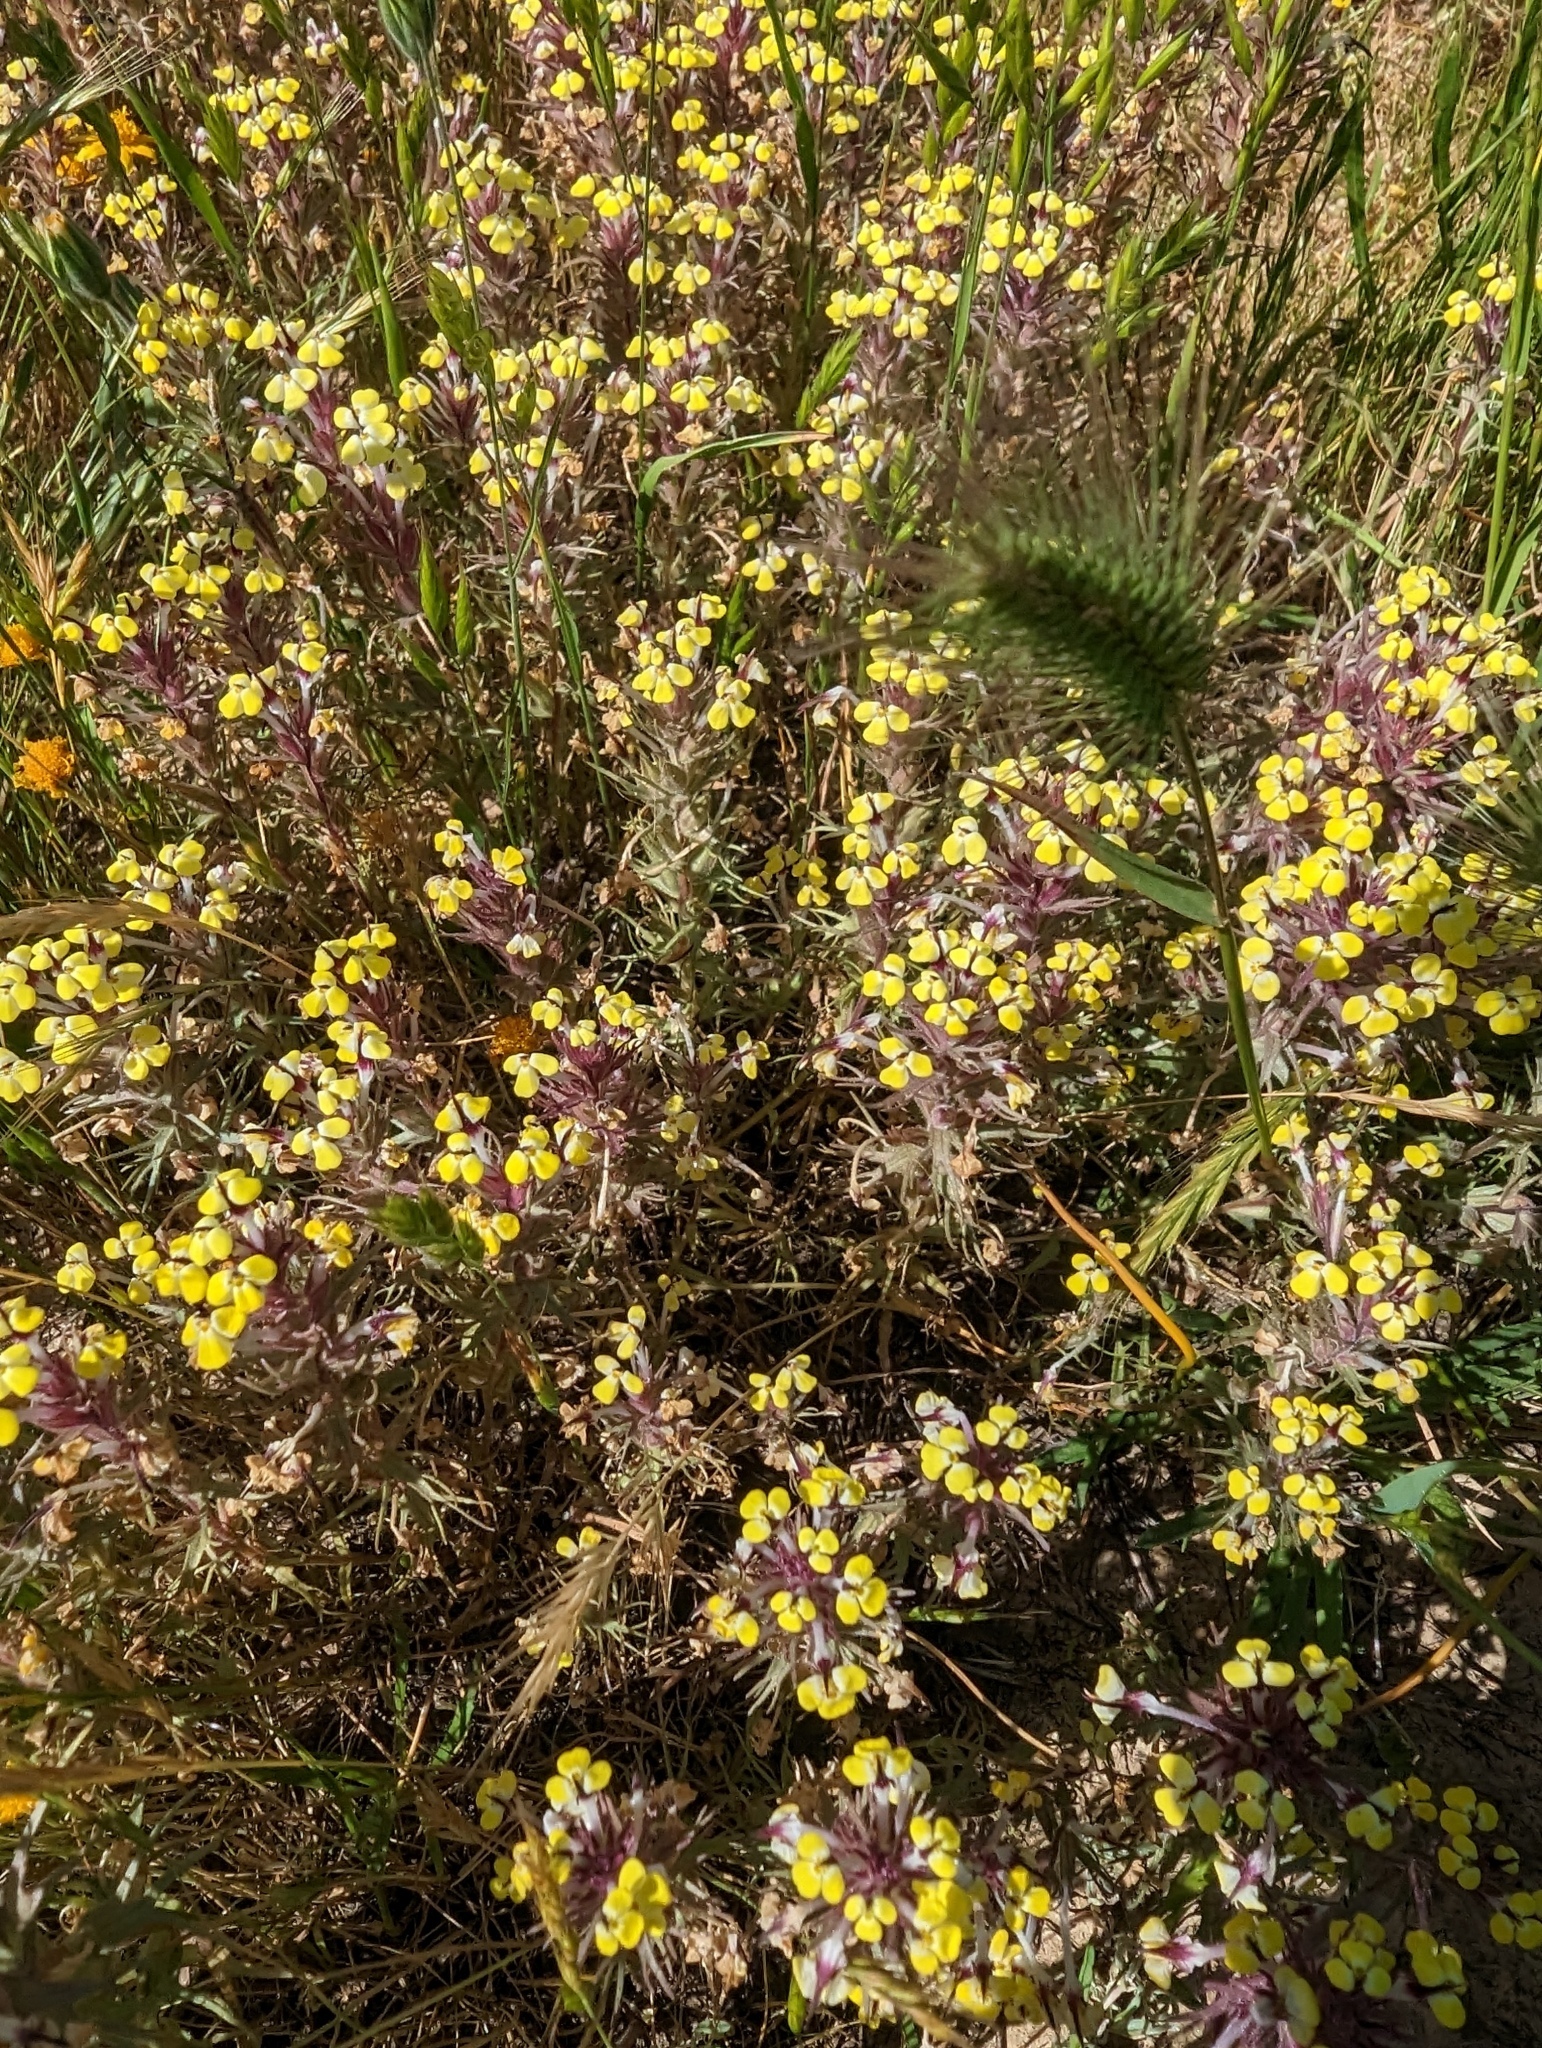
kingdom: Plantae
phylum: Tracheophyta
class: Magnoliopsida
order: Lamiales
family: Orobanchaceae
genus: Triphysaria
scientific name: Triphysaria eriantha
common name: Johnny-tuck
